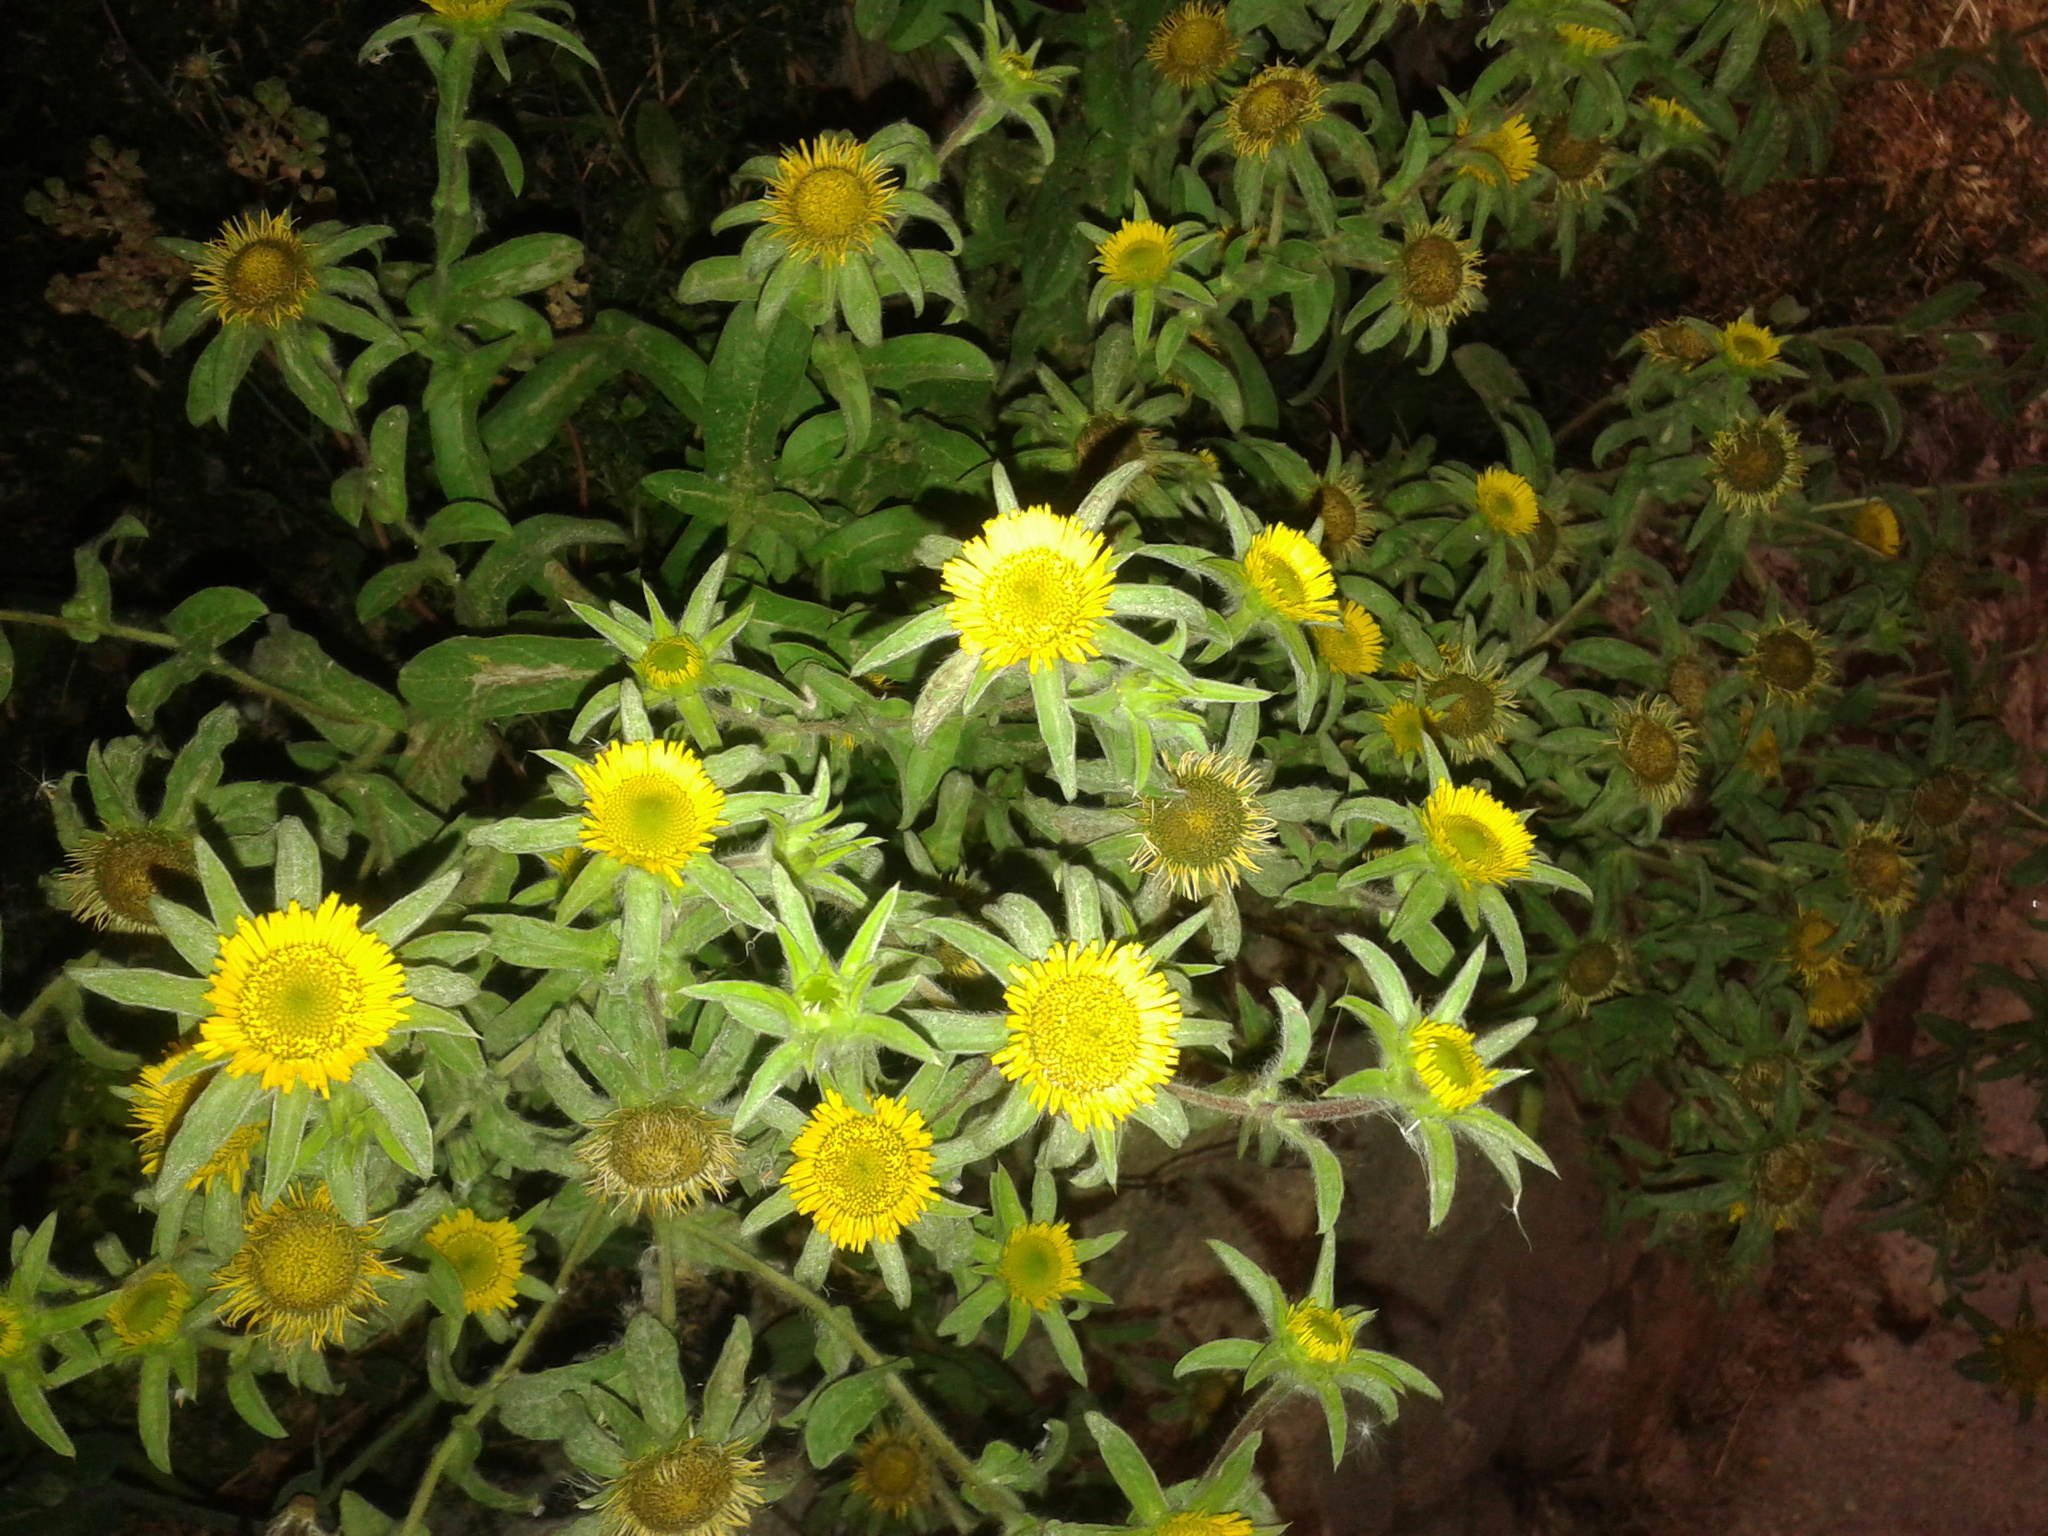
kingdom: Plantae
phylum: Tracheophyta
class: Magnoliopsida
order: Asterales
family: Asteraceae
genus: Pallenis
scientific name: Pallenis spinosa
